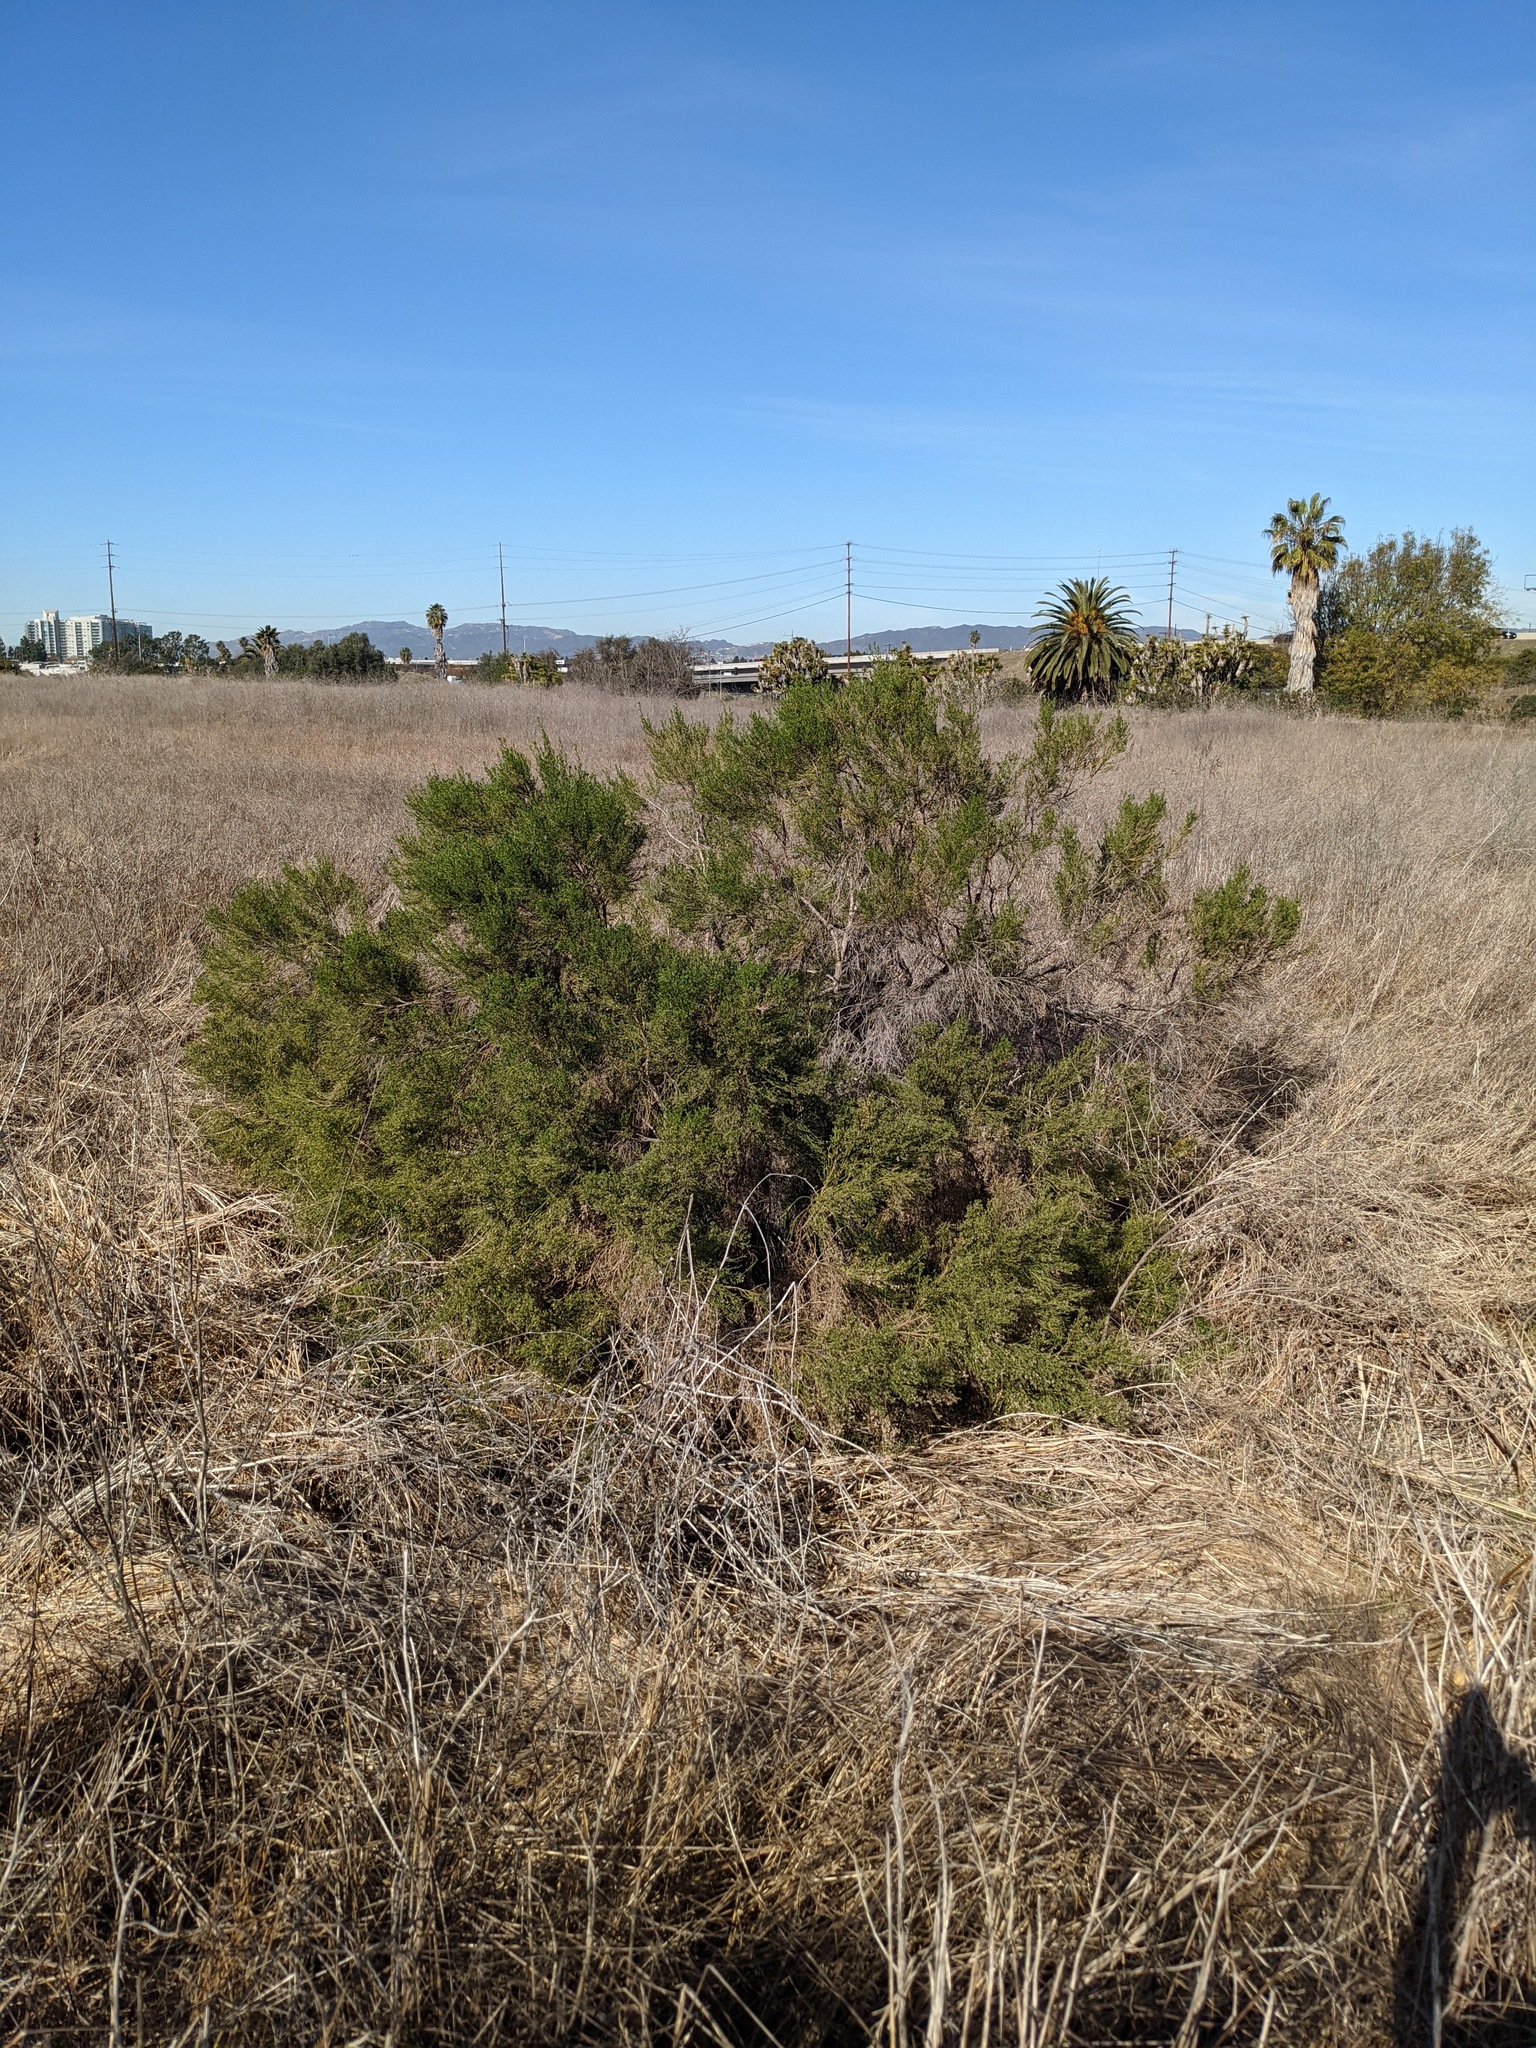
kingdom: Plantae
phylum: Tracheophyta
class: Magnoliopsida
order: Asterales
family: Asteraceae
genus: Baccharis
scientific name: Baccharis pilularis
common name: Coyotebrush
